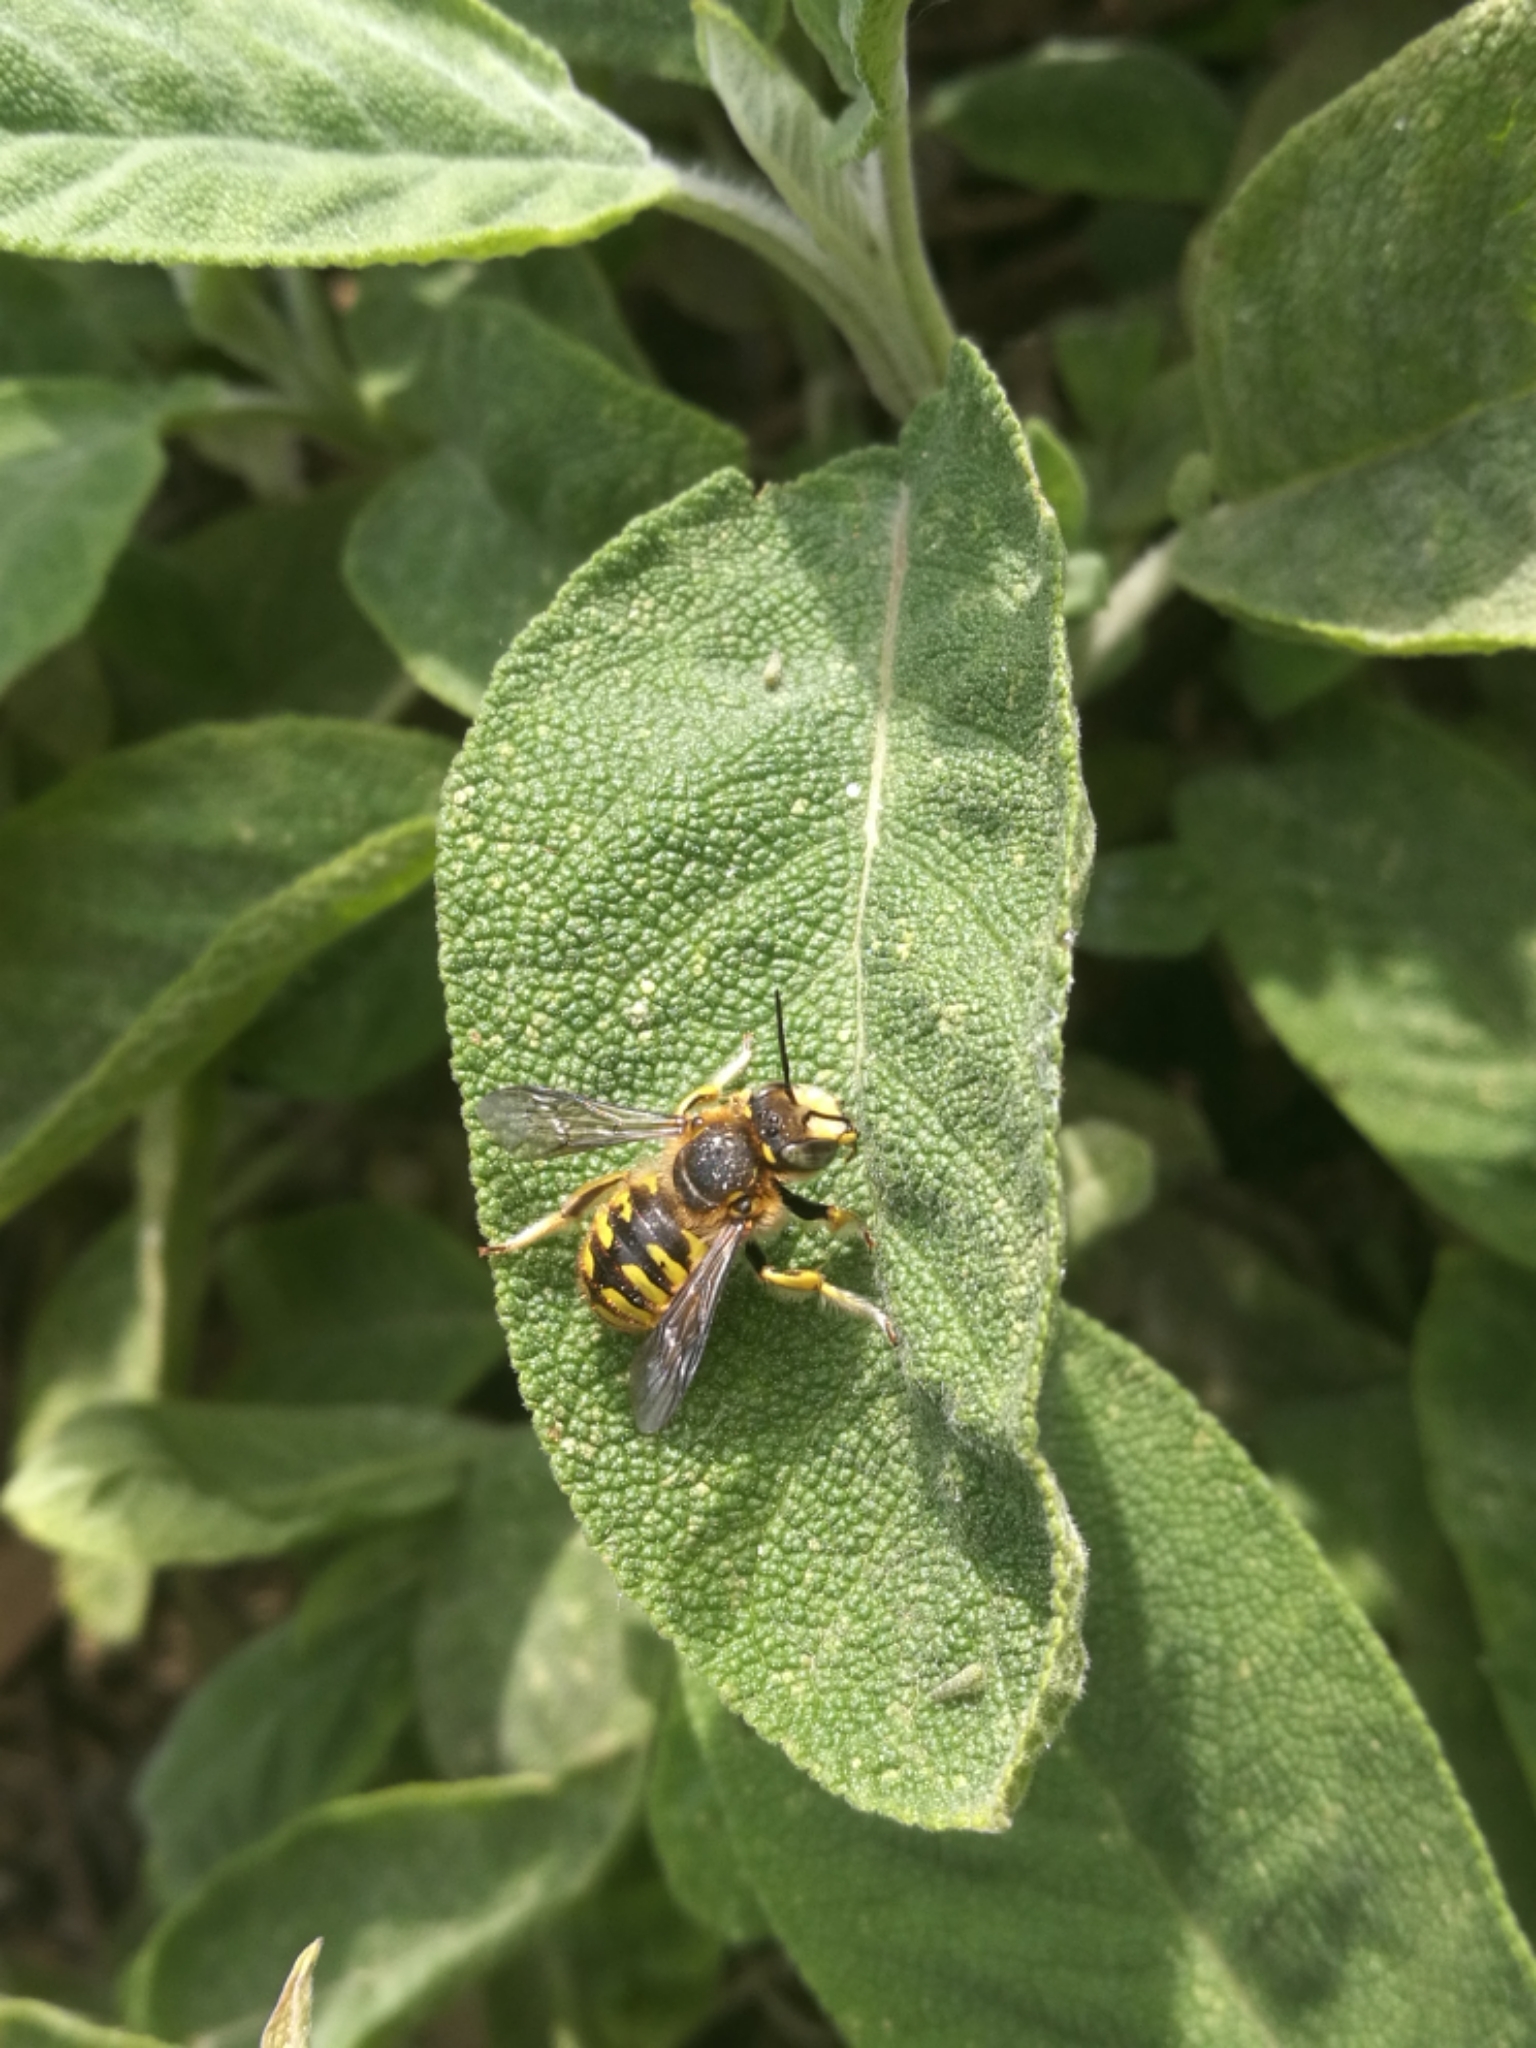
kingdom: Animalia
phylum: Arthropoda
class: Insecta
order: Hymenoptera
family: Megachilidae
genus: Anthidium
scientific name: Anthidium manicatum
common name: Wool carder bee
